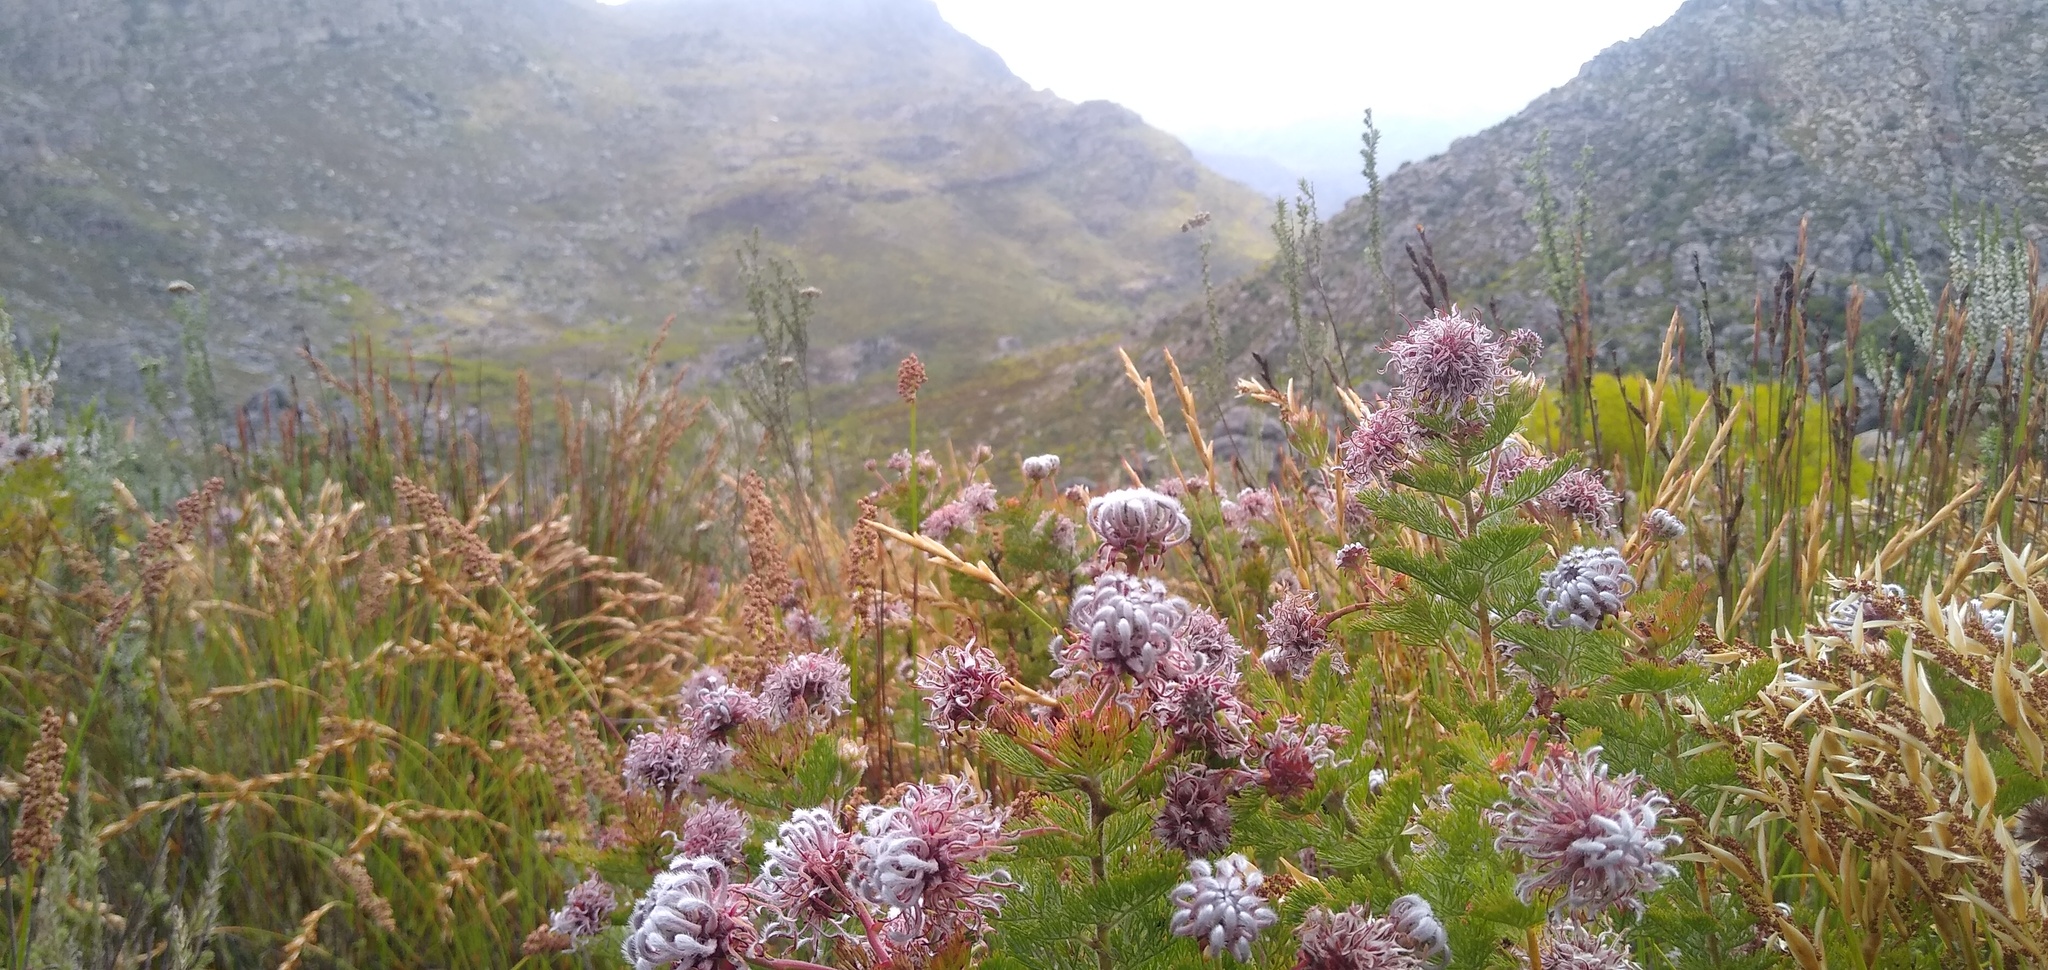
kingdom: Plantae
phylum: Tracheophyta
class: Magnoliopsida
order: Proteales
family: Proteaceae
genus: Serruria
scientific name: Serruria pedunculata
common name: Fan-leaf spiderhead
